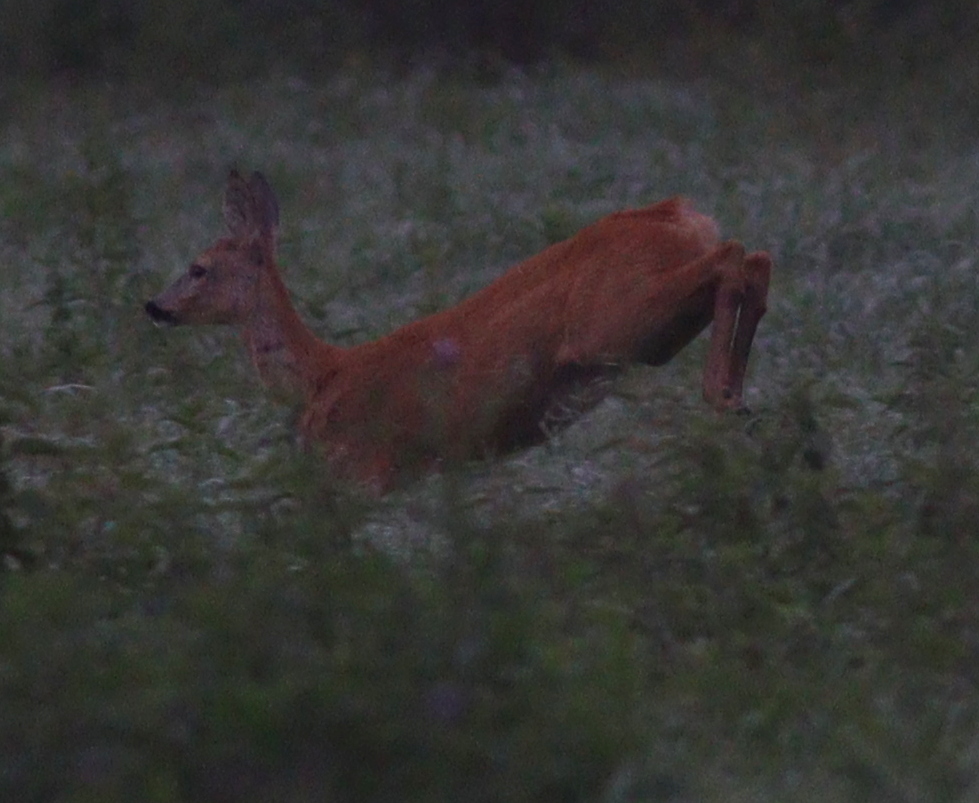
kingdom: Animalia
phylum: Chordata
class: Mammalia
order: Artiodactyla
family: Cervidae
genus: Capreolus
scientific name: Capreolus capreolus
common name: Western roe deer
